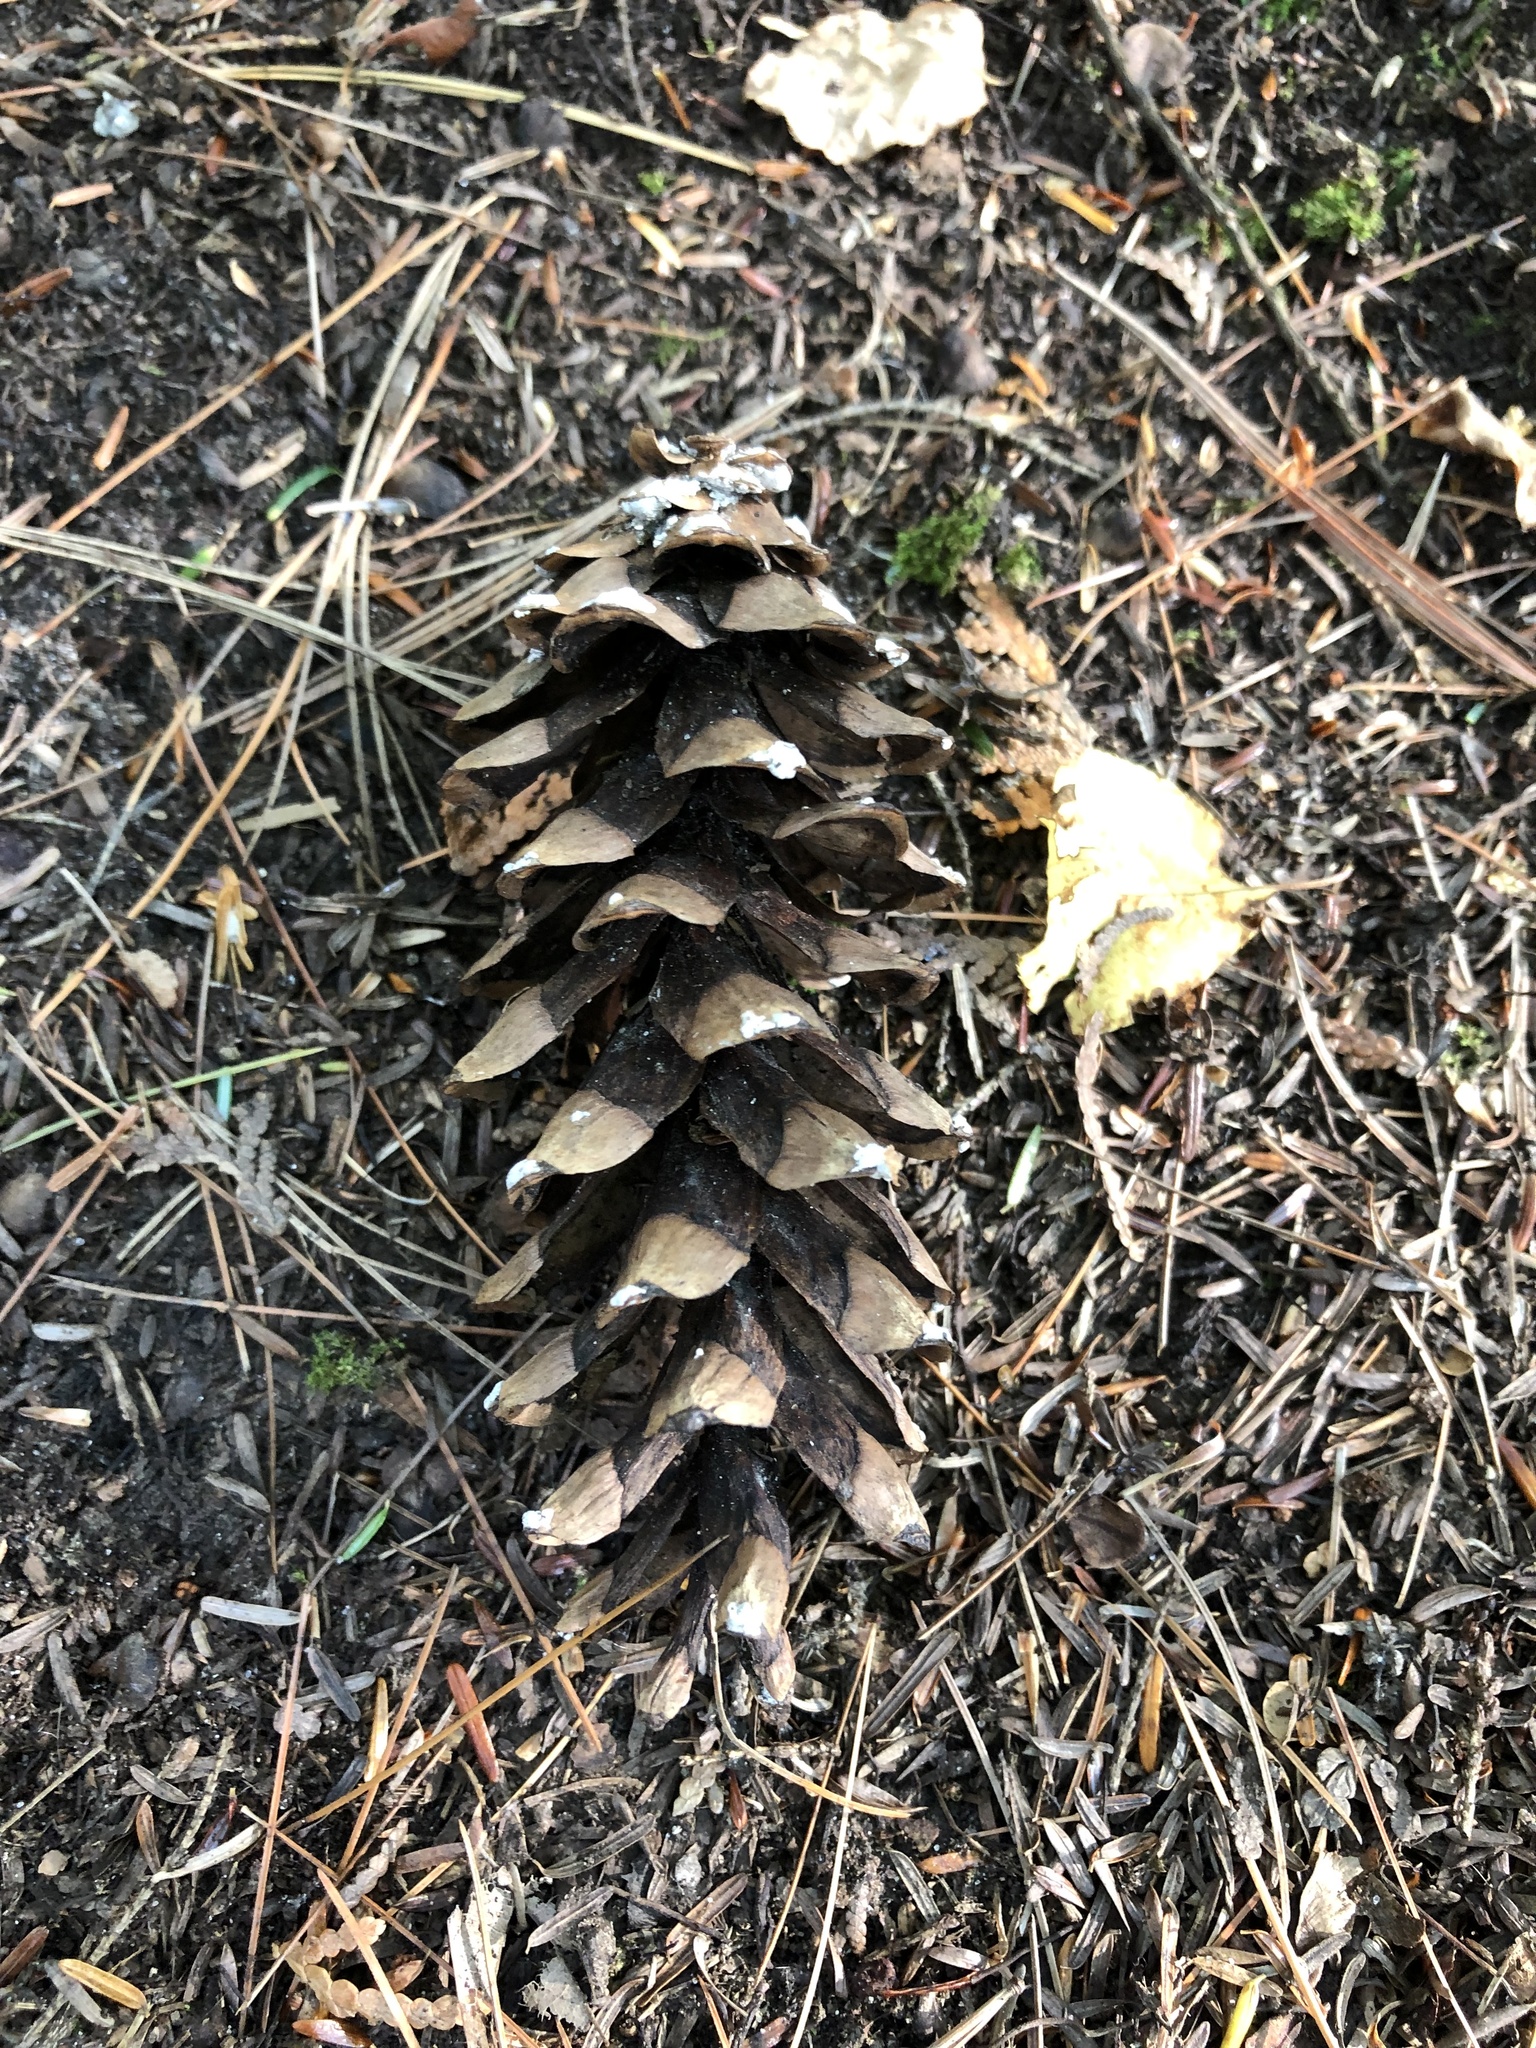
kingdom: Plantae
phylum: Tracheophyta
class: Pinopsida
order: Pinales
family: Pinaceae
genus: Pinus
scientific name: Pinus strobus
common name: Weymouth pine
